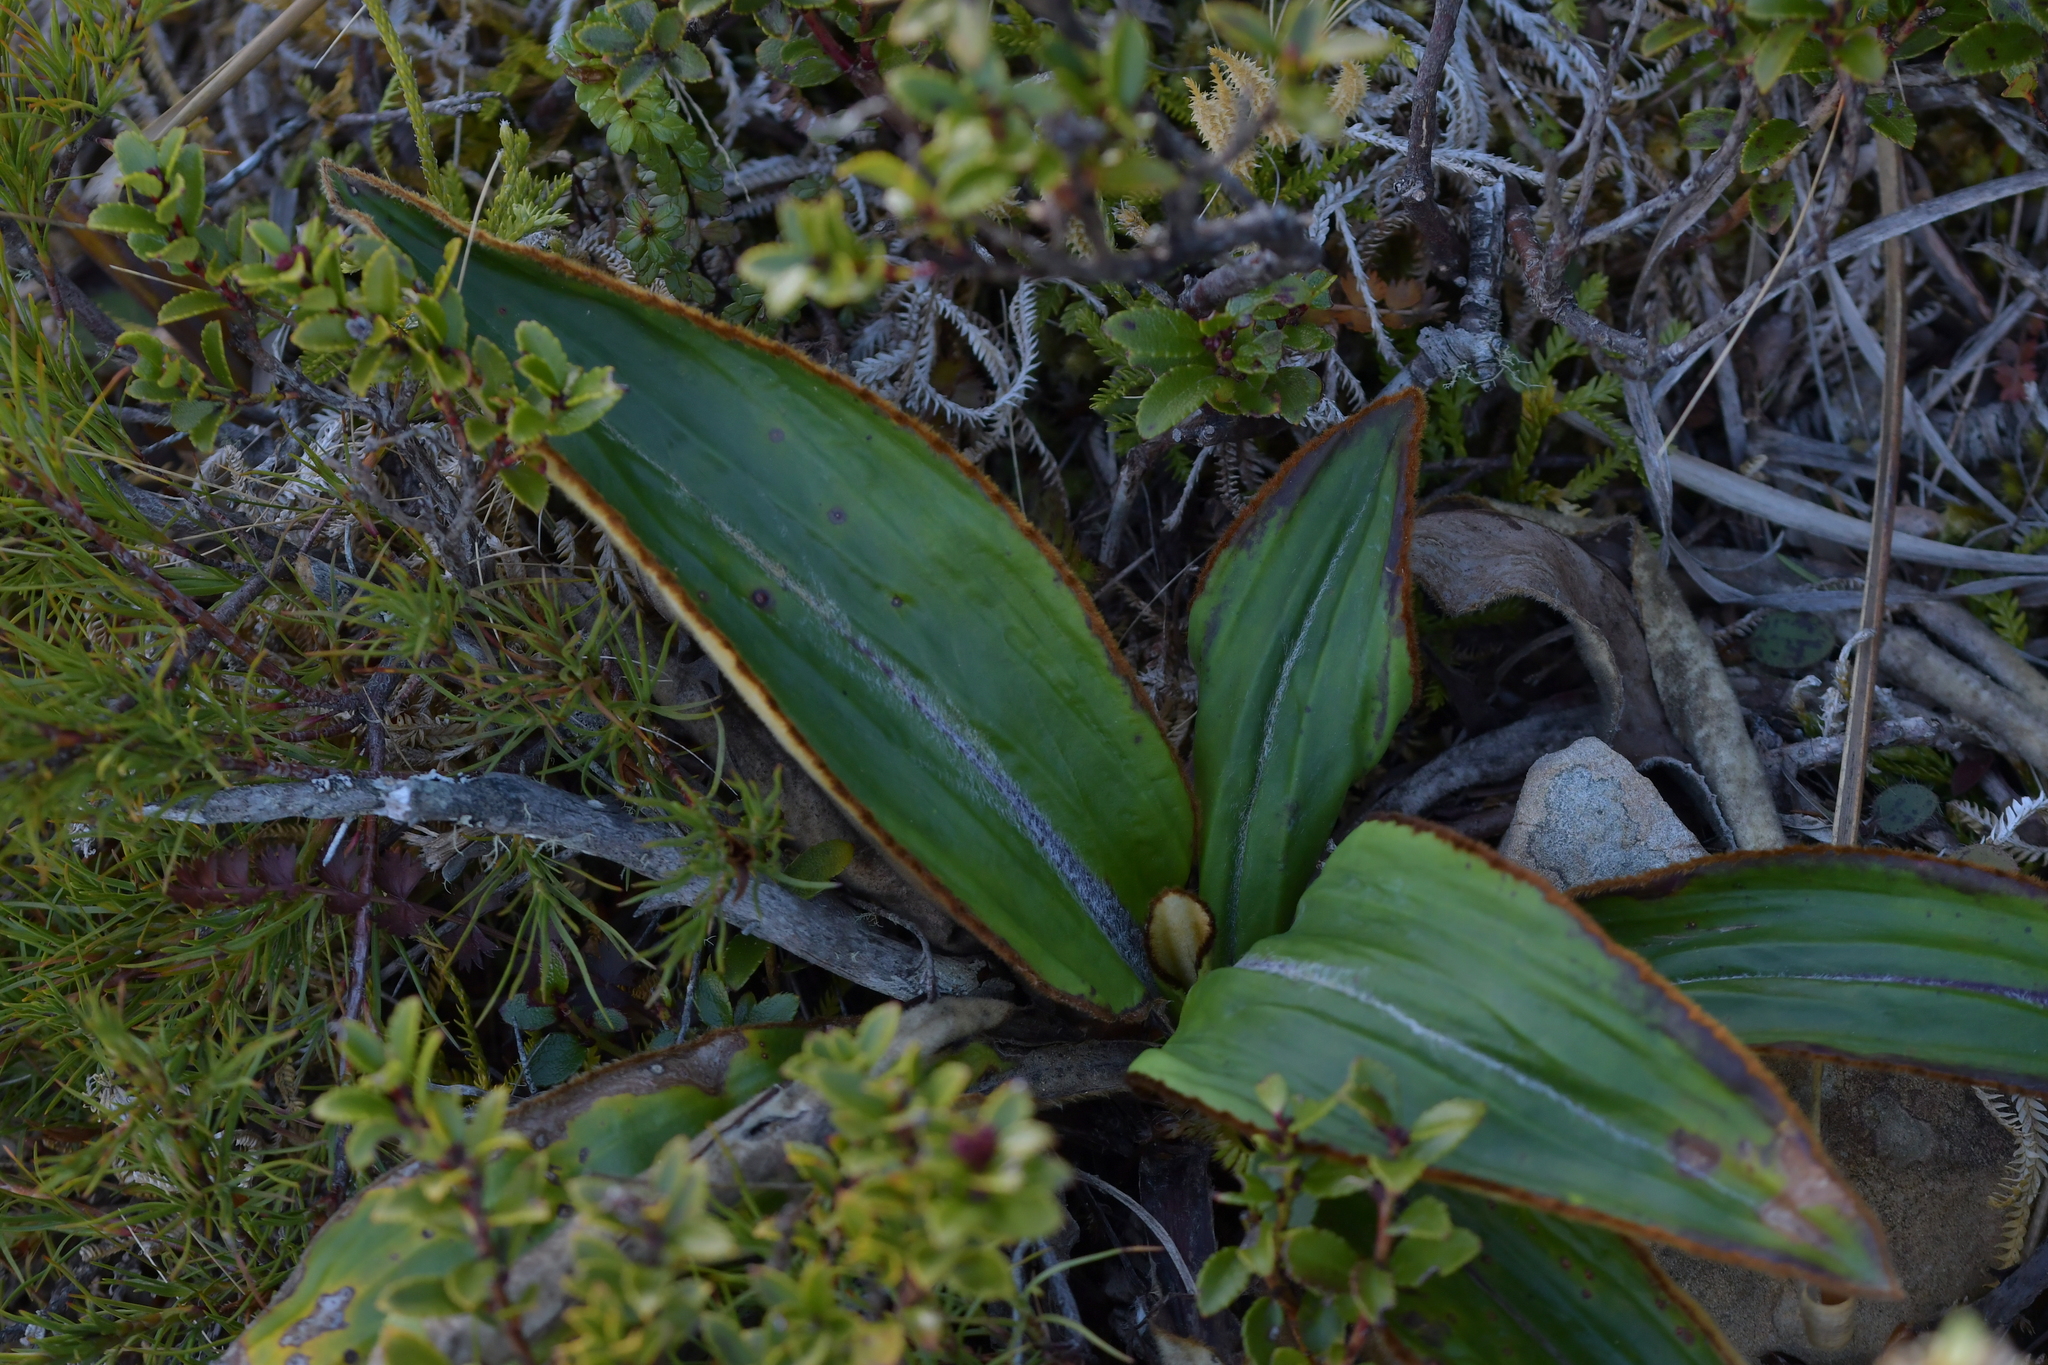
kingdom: Plantae
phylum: Tracheophyta
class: Magnoliopsida
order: Asterales
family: Asteraceae
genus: Celmisia
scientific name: Celmisia traversii
